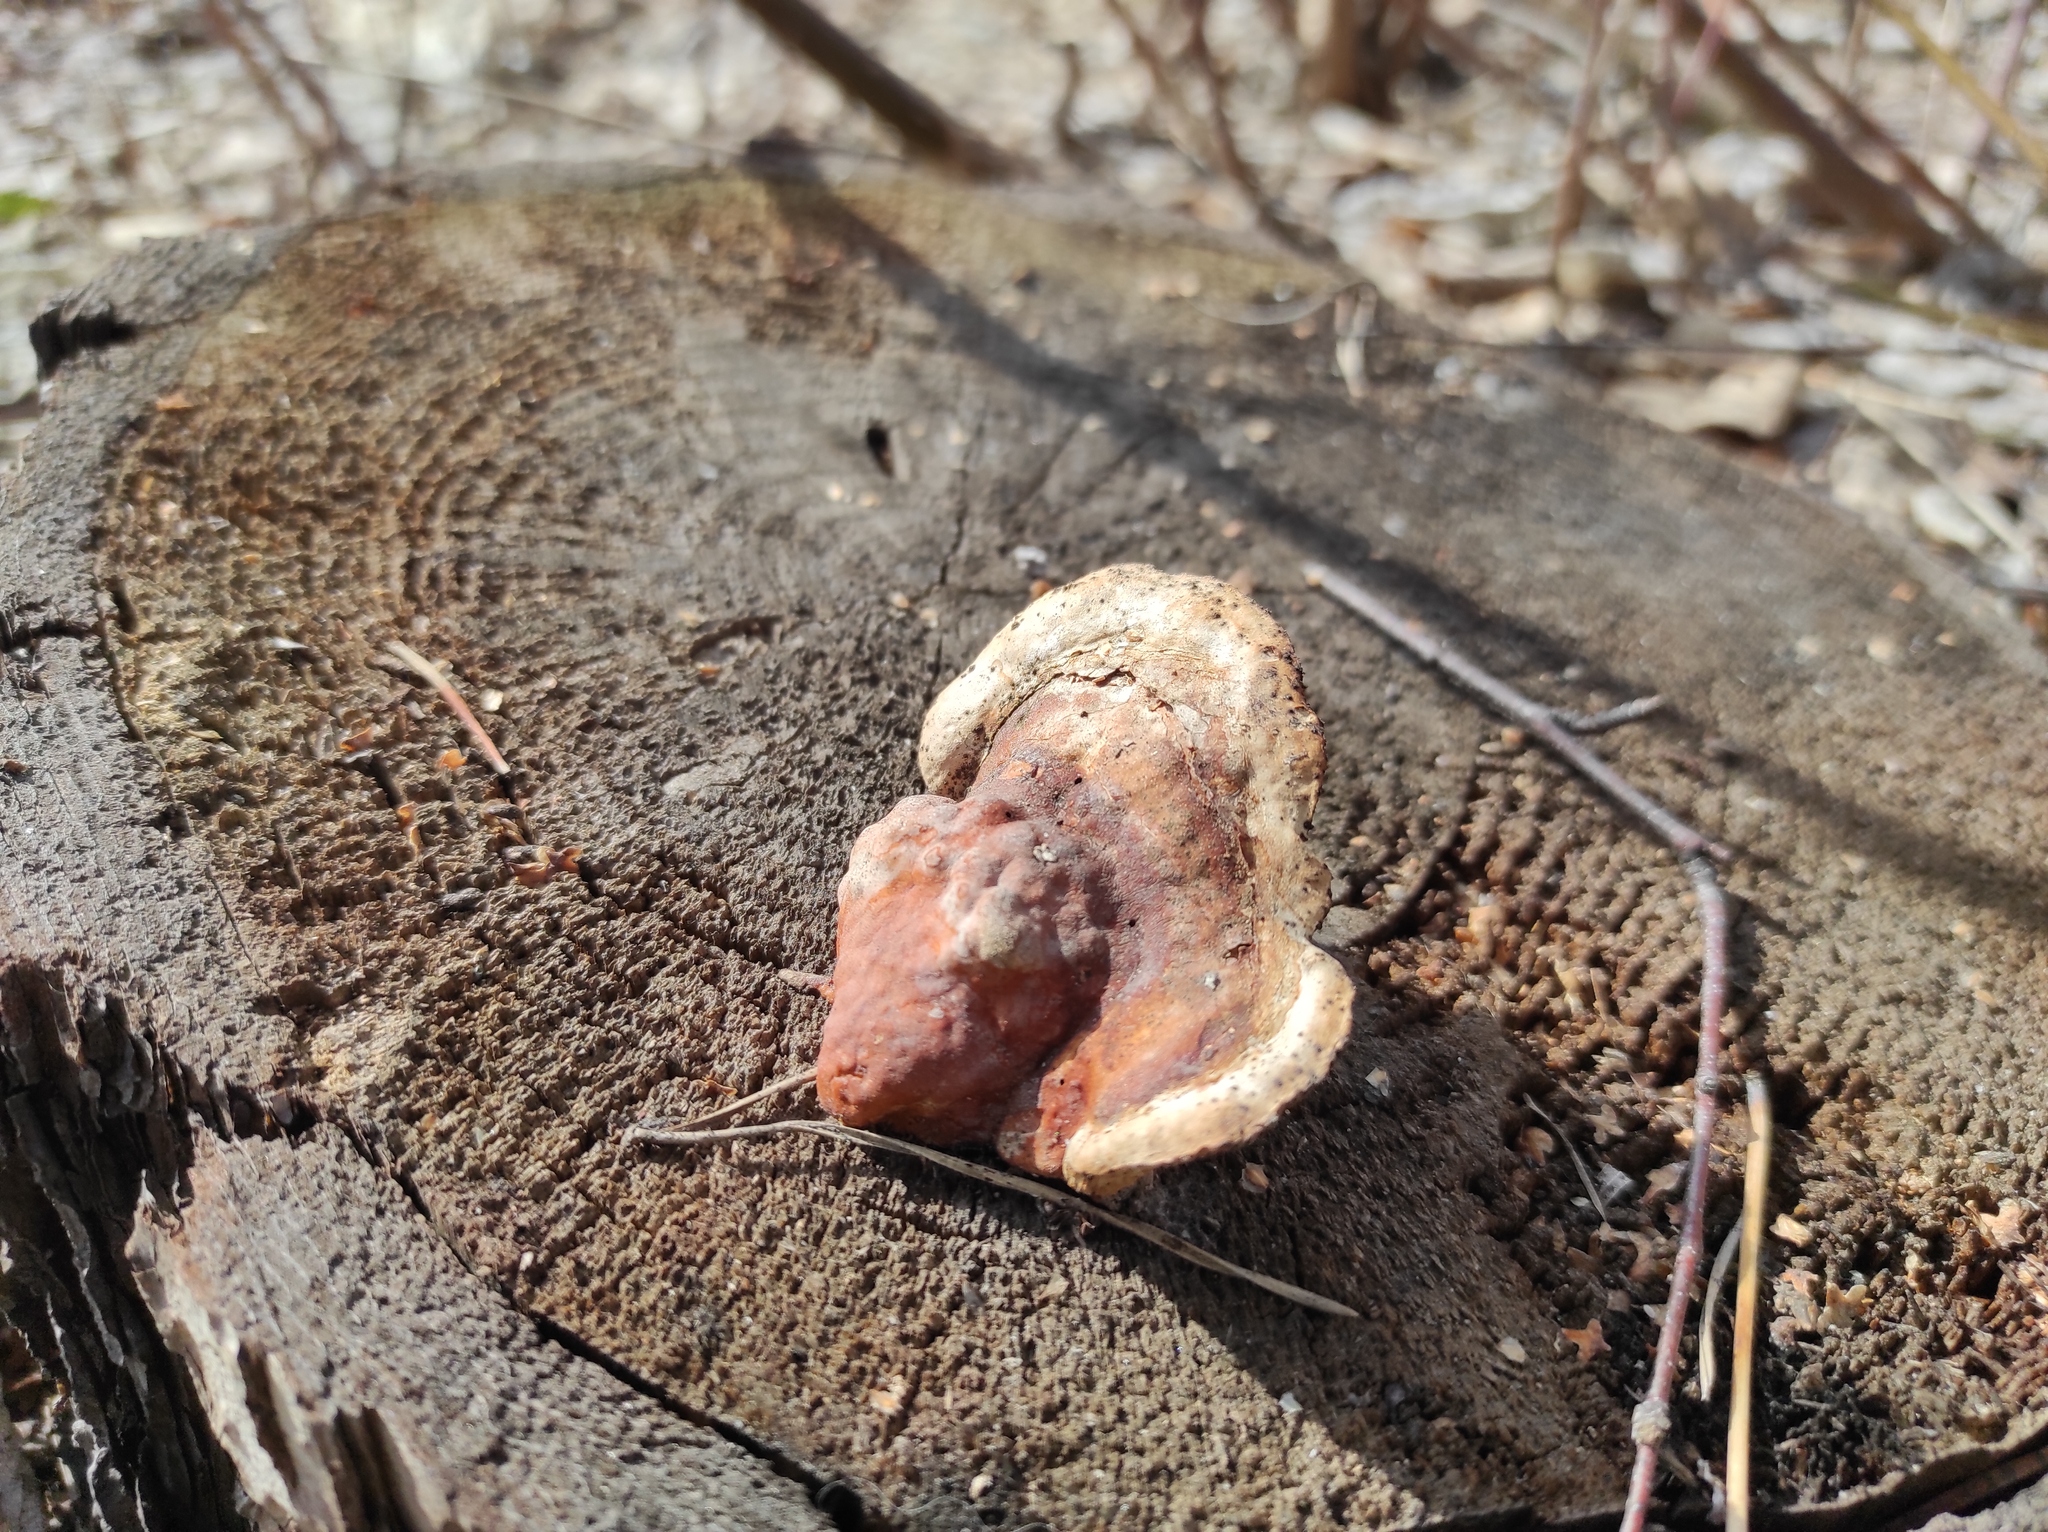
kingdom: Fungi
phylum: Basidiomycota
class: Agaricomycetes
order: Polyporales
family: Fomitopsidaceae
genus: Fomitopsis
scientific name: Fomitopsis pinicola
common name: Red-belted bracket
